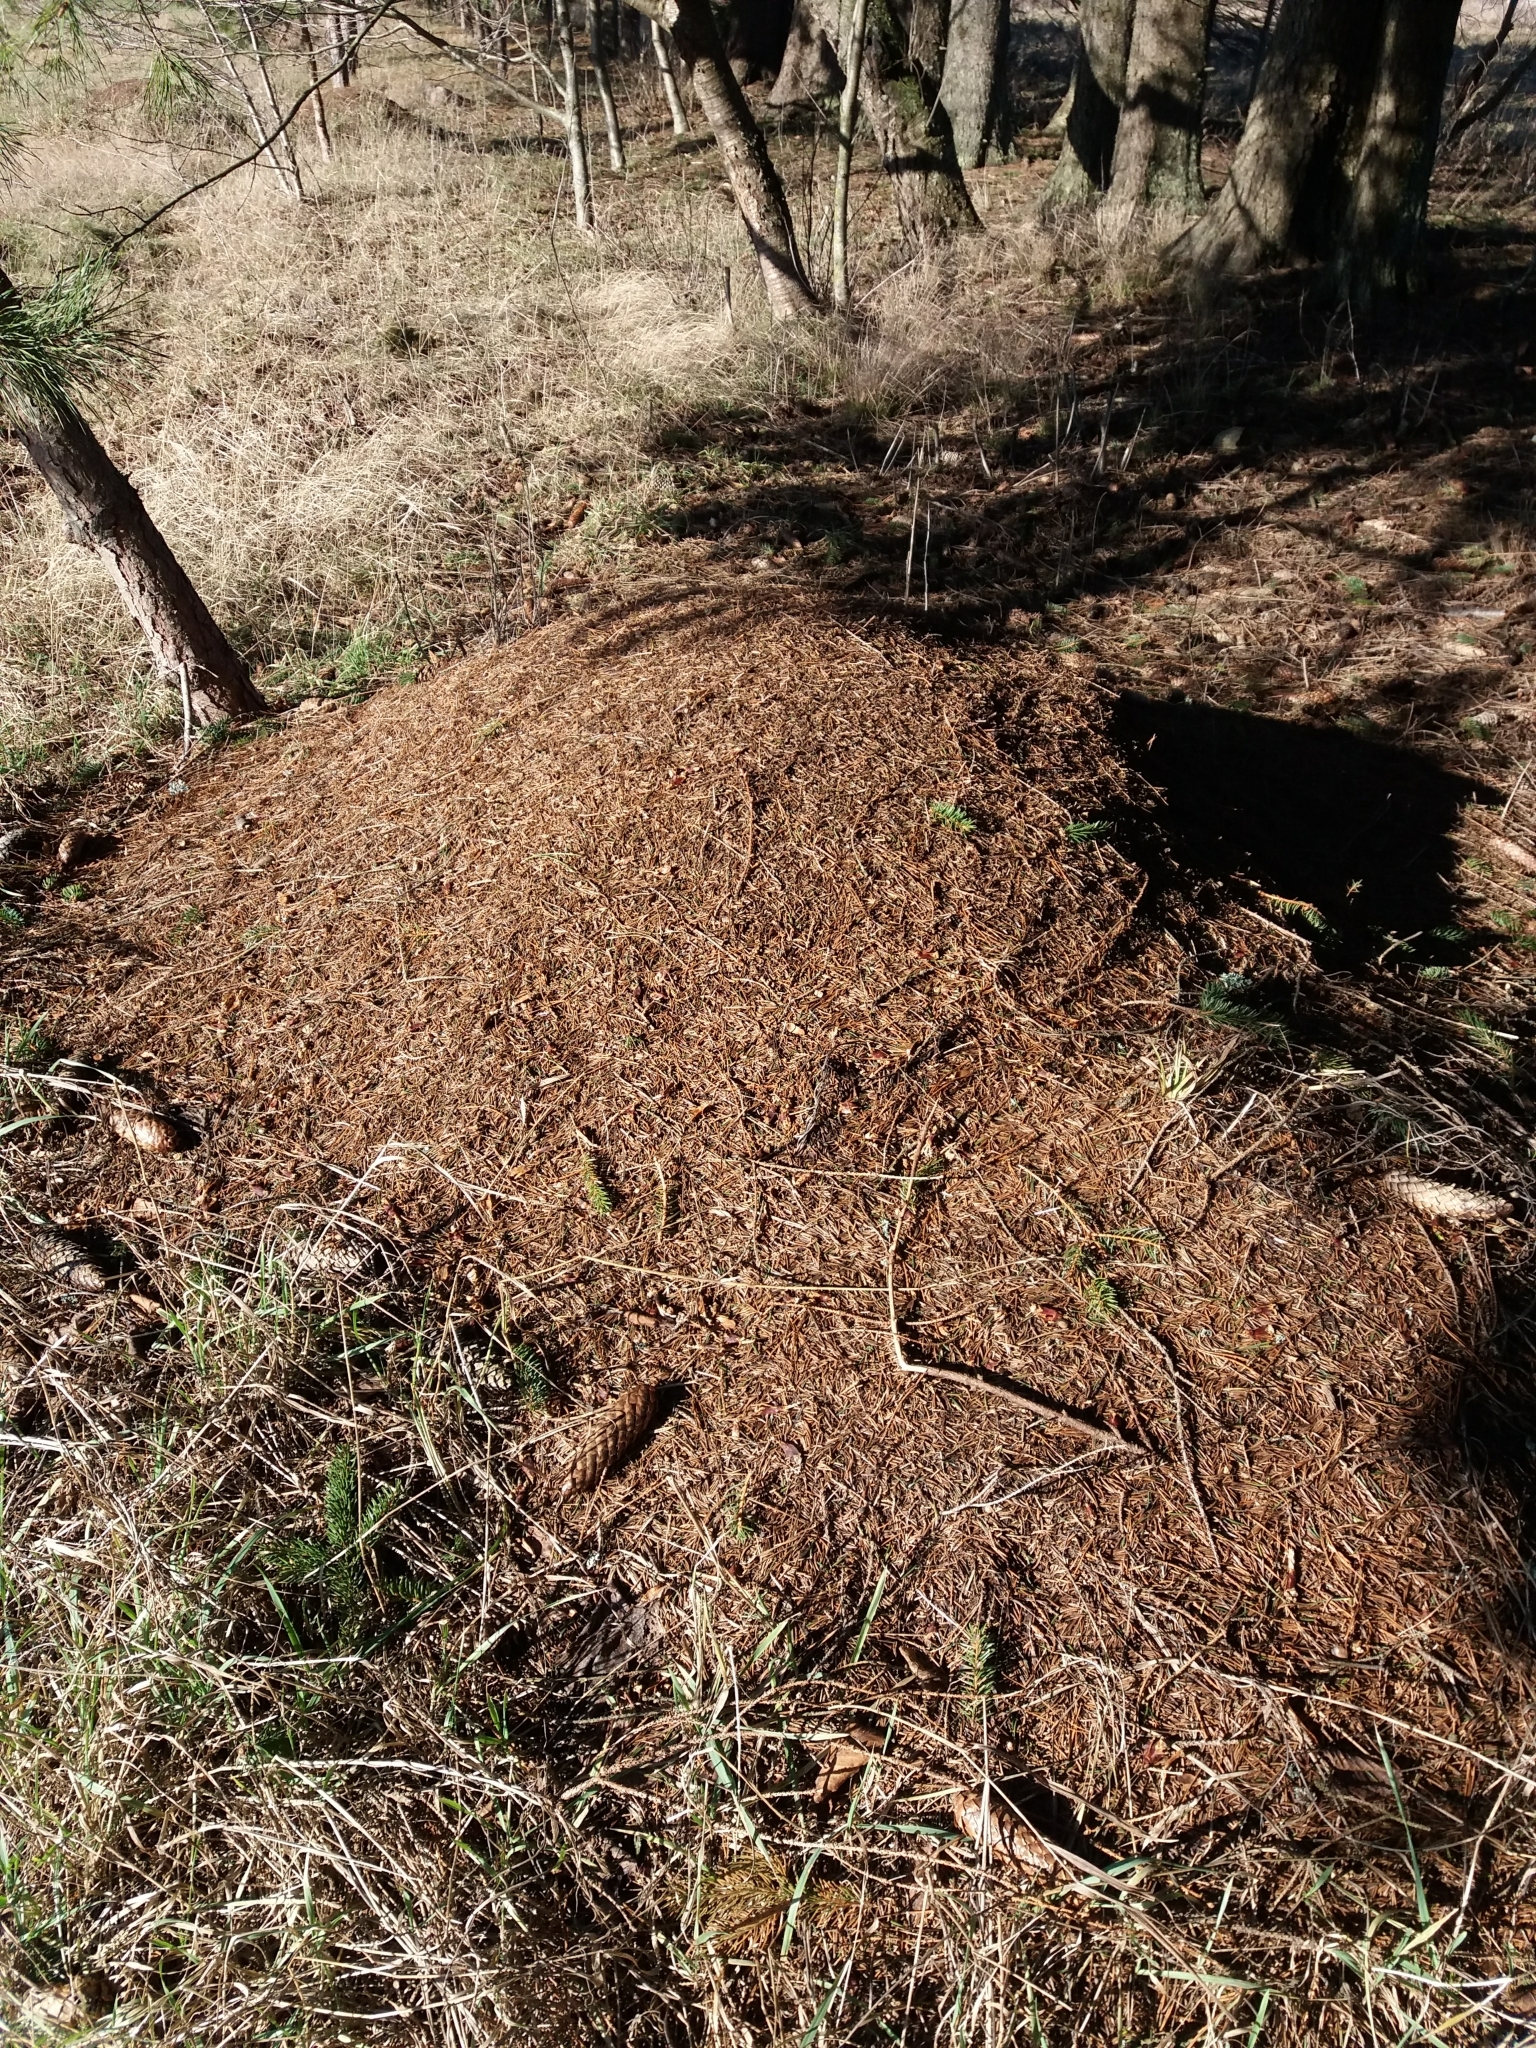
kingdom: Animalia
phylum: Arthropoda
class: Insecta
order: Hymenoptera
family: Formicidae
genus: Formica
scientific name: Formica
